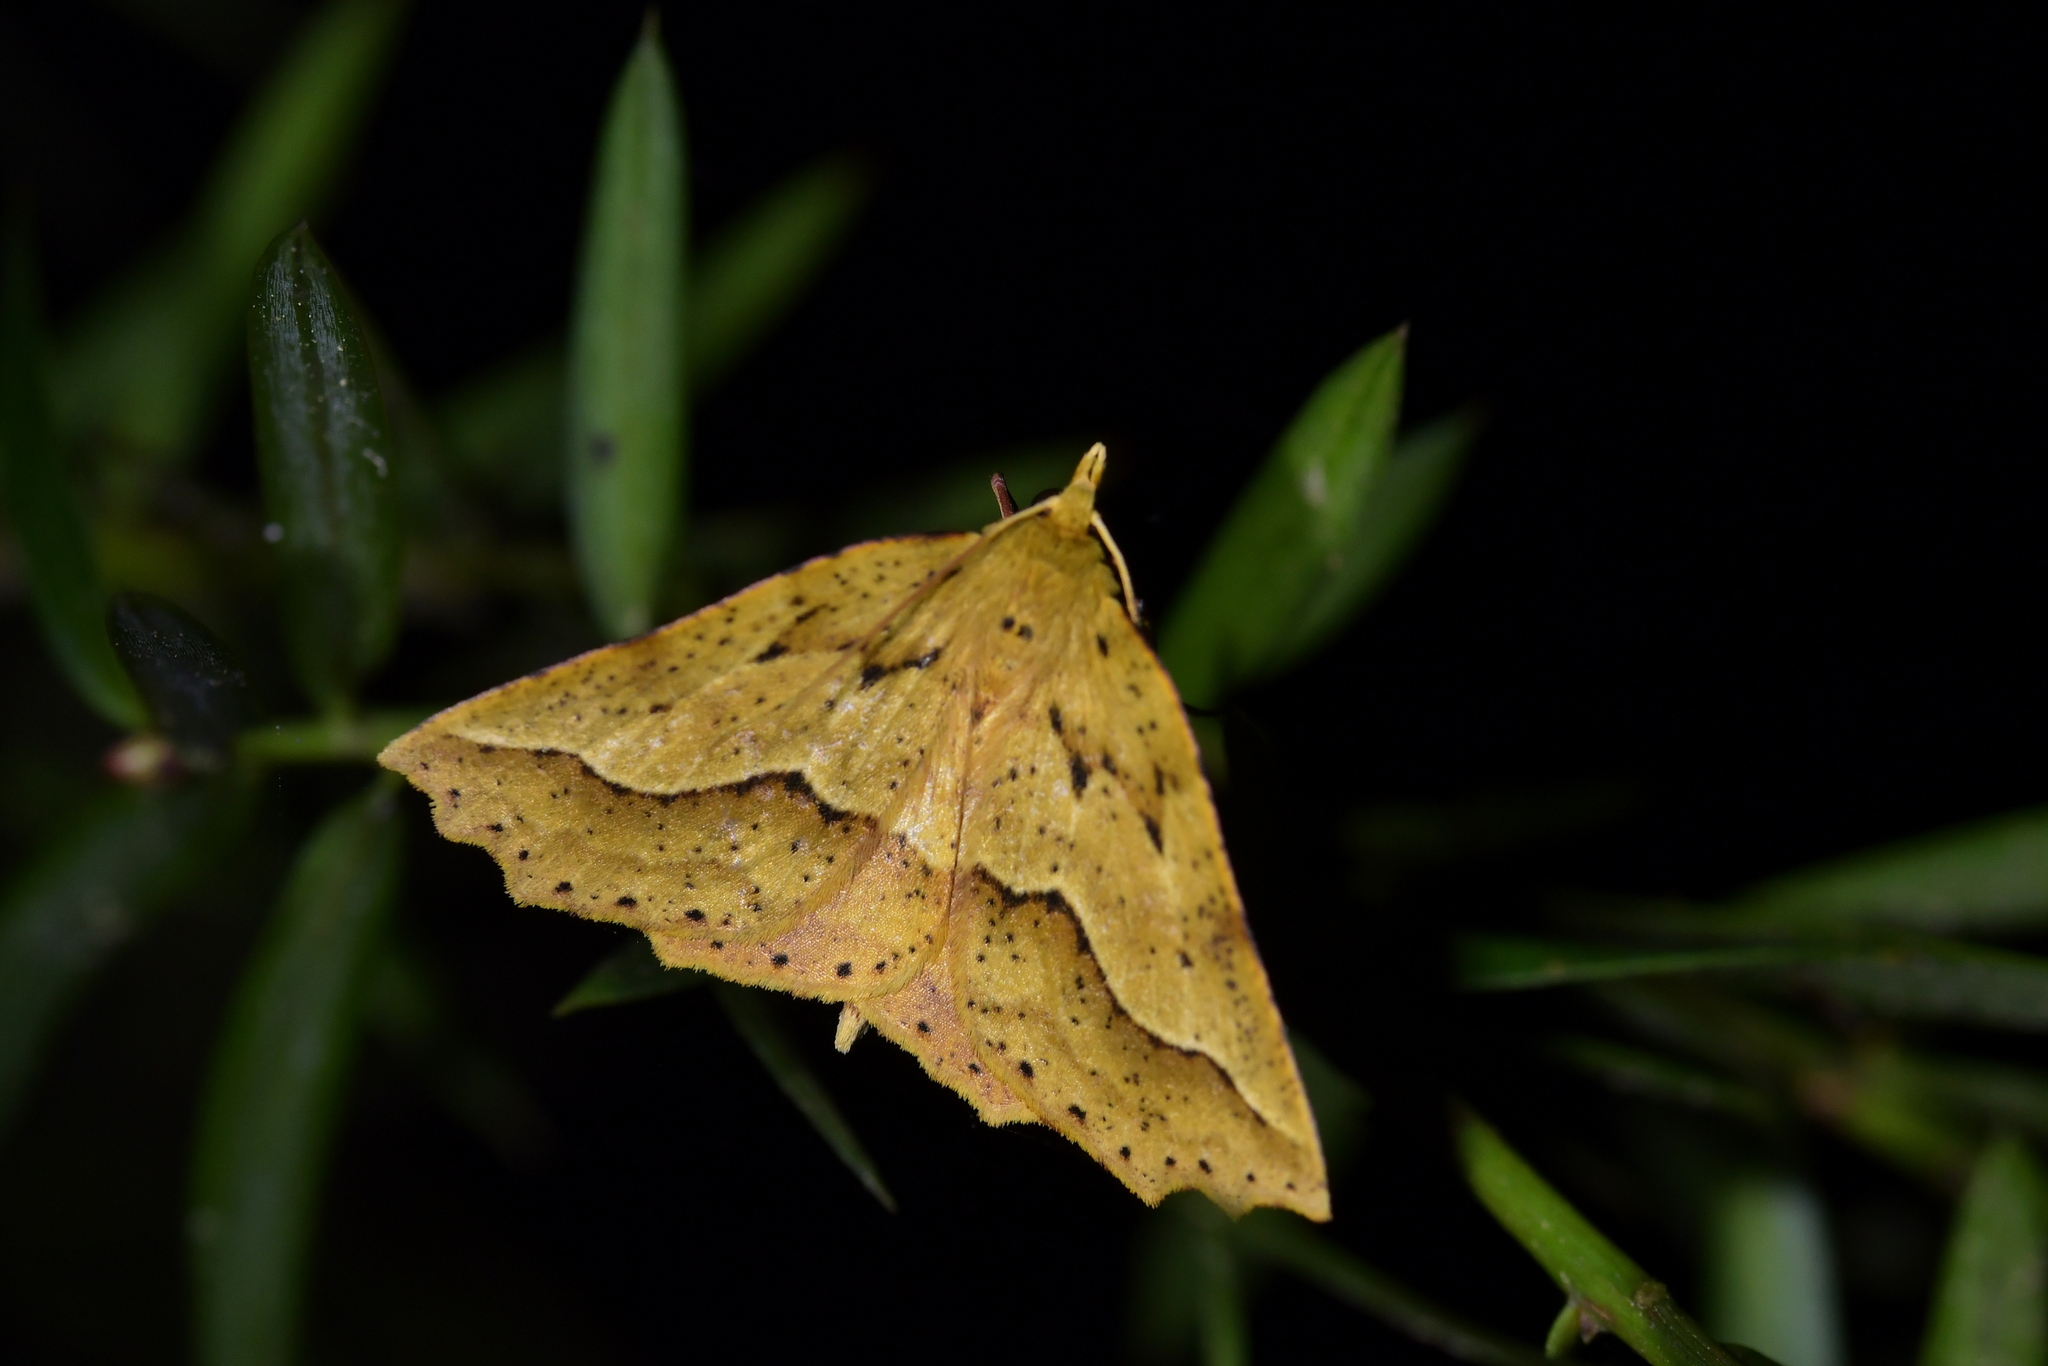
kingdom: Animalia
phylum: Arthropoda
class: Insecta
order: Lepidoptera
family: Geometridae
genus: Ischalis
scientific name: Ischalis variabilis
